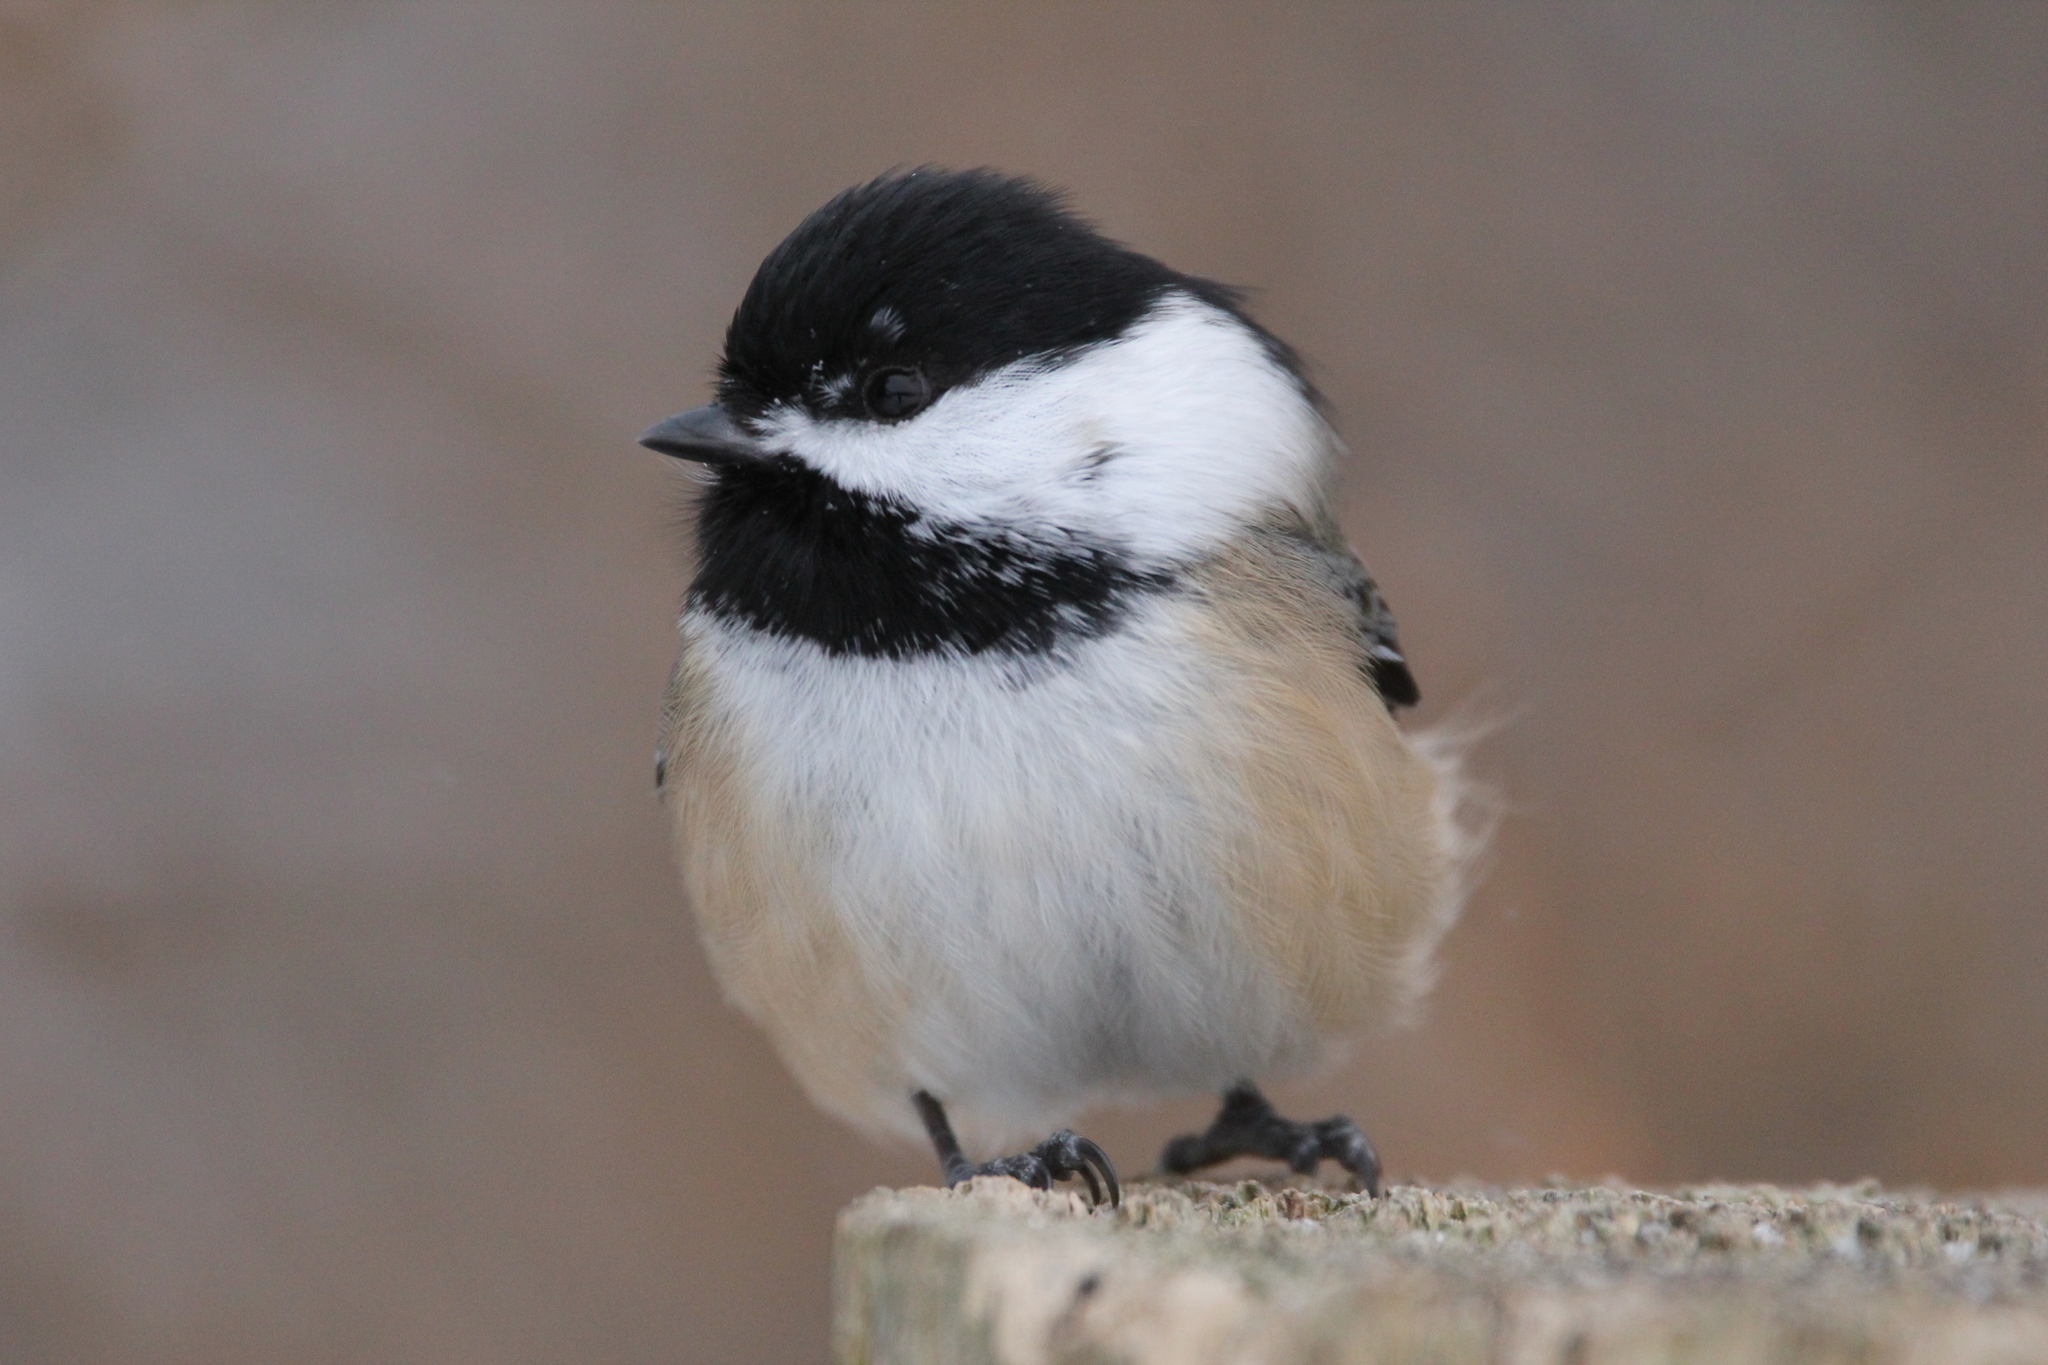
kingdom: Animalia
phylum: Chordata
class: Aves
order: Passeriformes
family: Paridae
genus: Poecile
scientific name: Poecile atricapillus
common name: Black-capped chickadee
